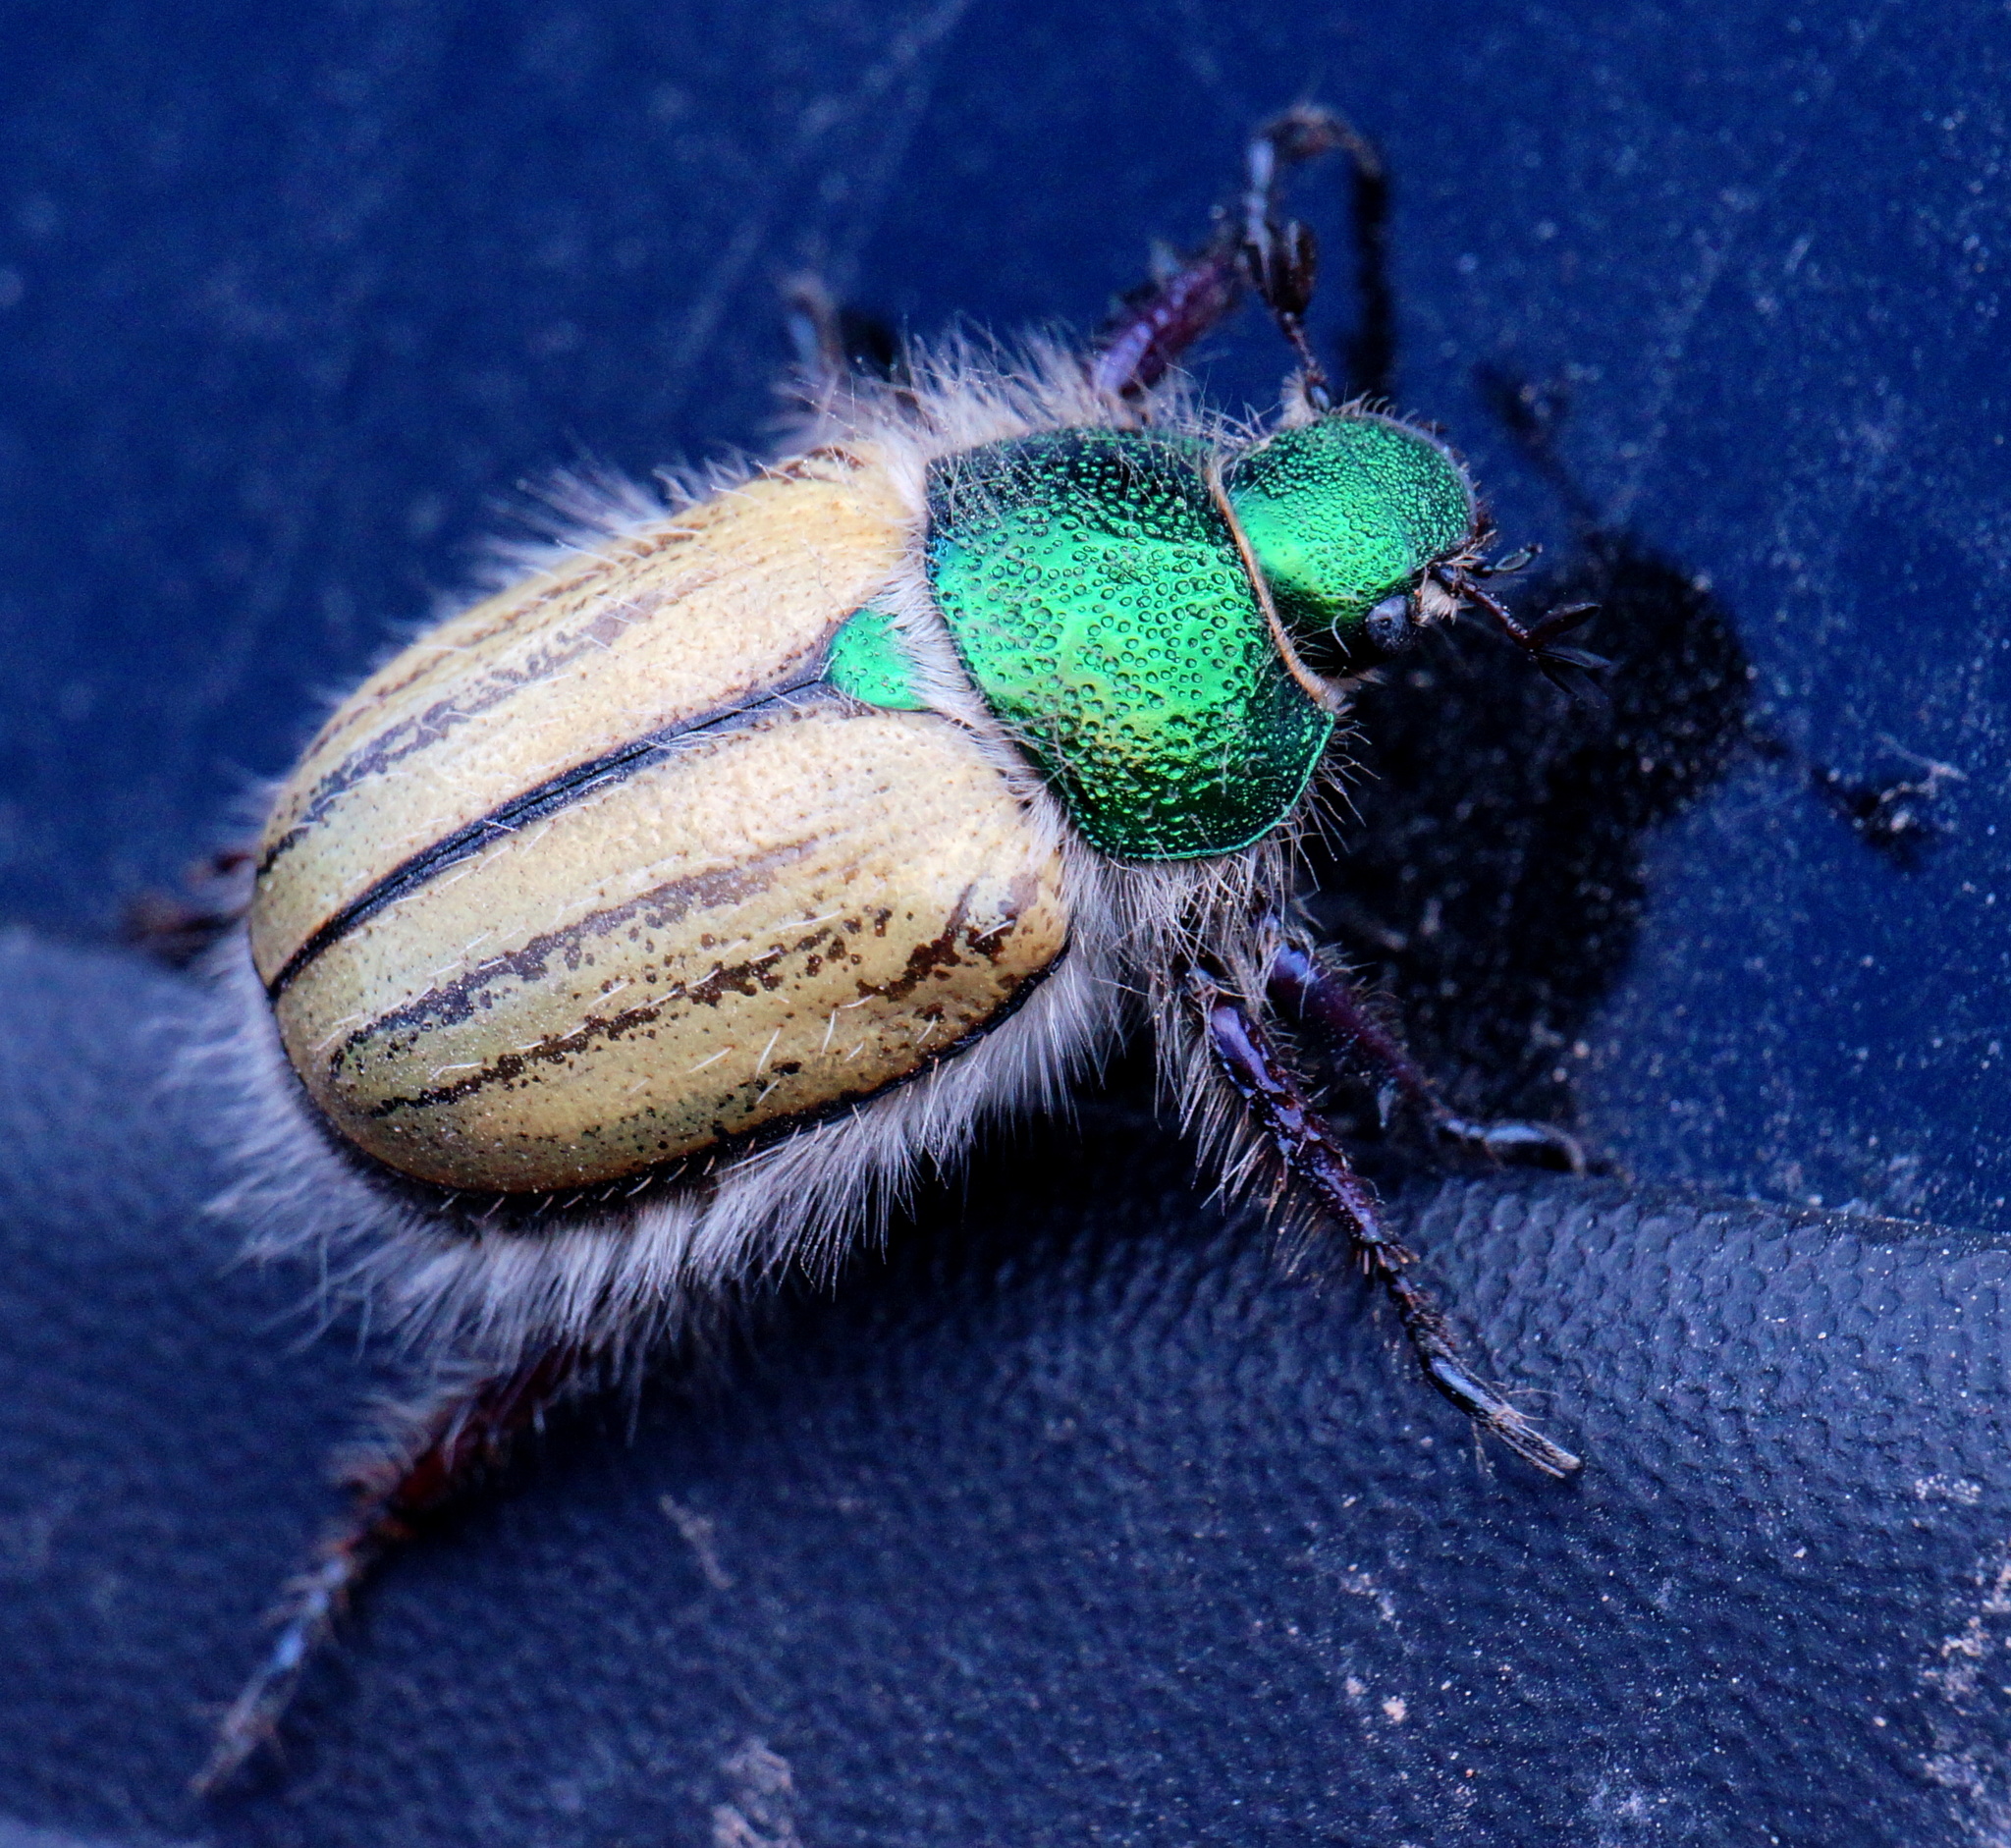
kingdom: Animalia
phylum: Arthropoda
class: Insecta
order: Coleoptera
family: Scarabaeidae
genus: Paracotalpa
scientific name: Paracotalpa puncticollis
